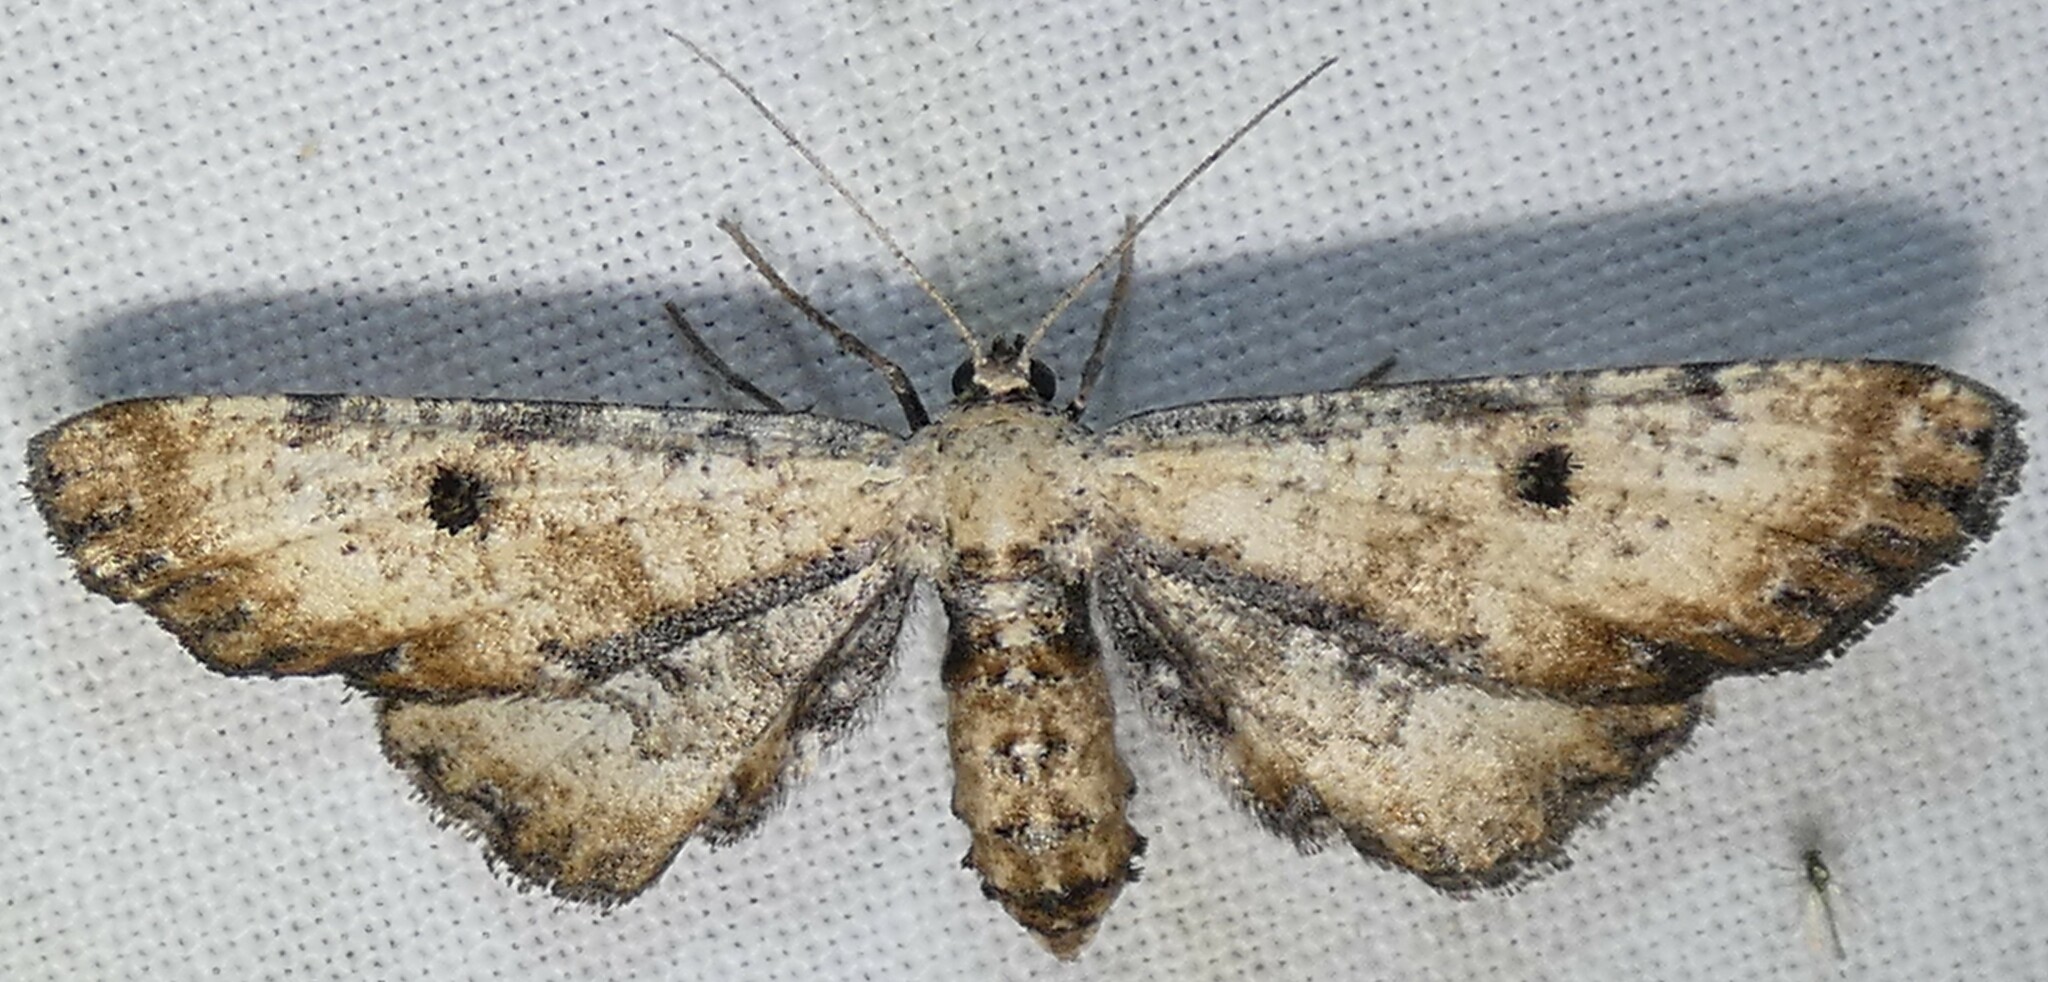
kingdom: Animalia
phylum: Arthropoda
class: Insecta
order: Lepidoptera
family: Geometridae
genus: Tornos
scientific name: Tornos scolopacinaria
